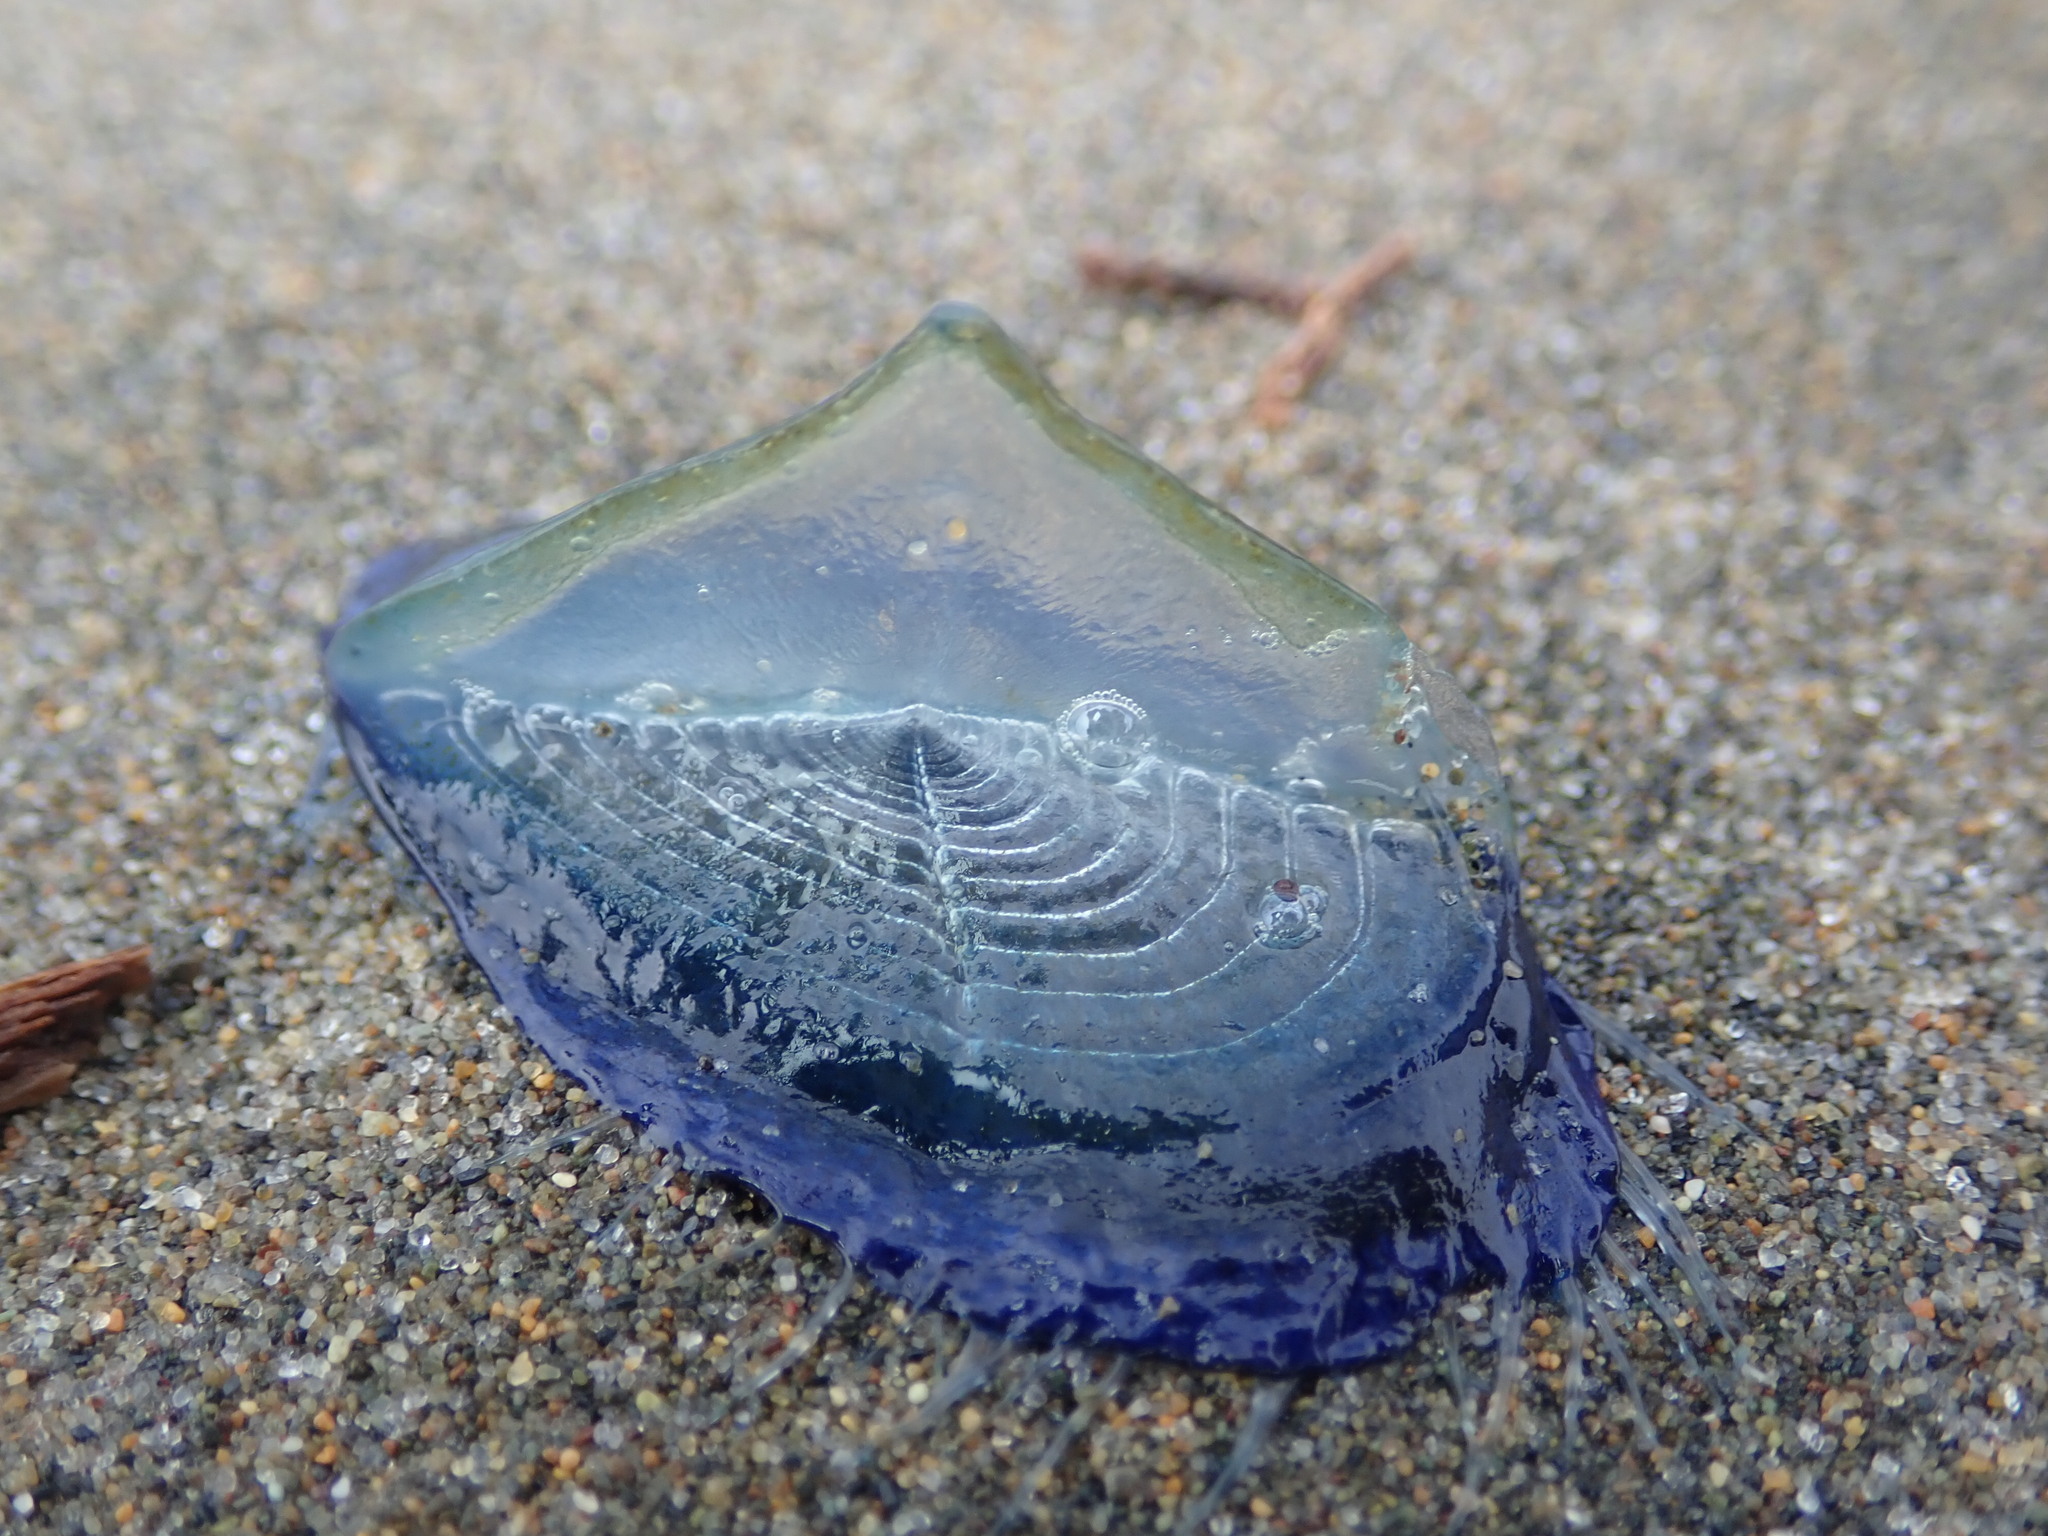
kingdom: Animalia
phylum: Cnidaria
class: Hydrozoa
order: Anthoathecata
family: Porpitidae
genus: Velella
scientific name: Velella velella
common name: By-the-wind-sailor
